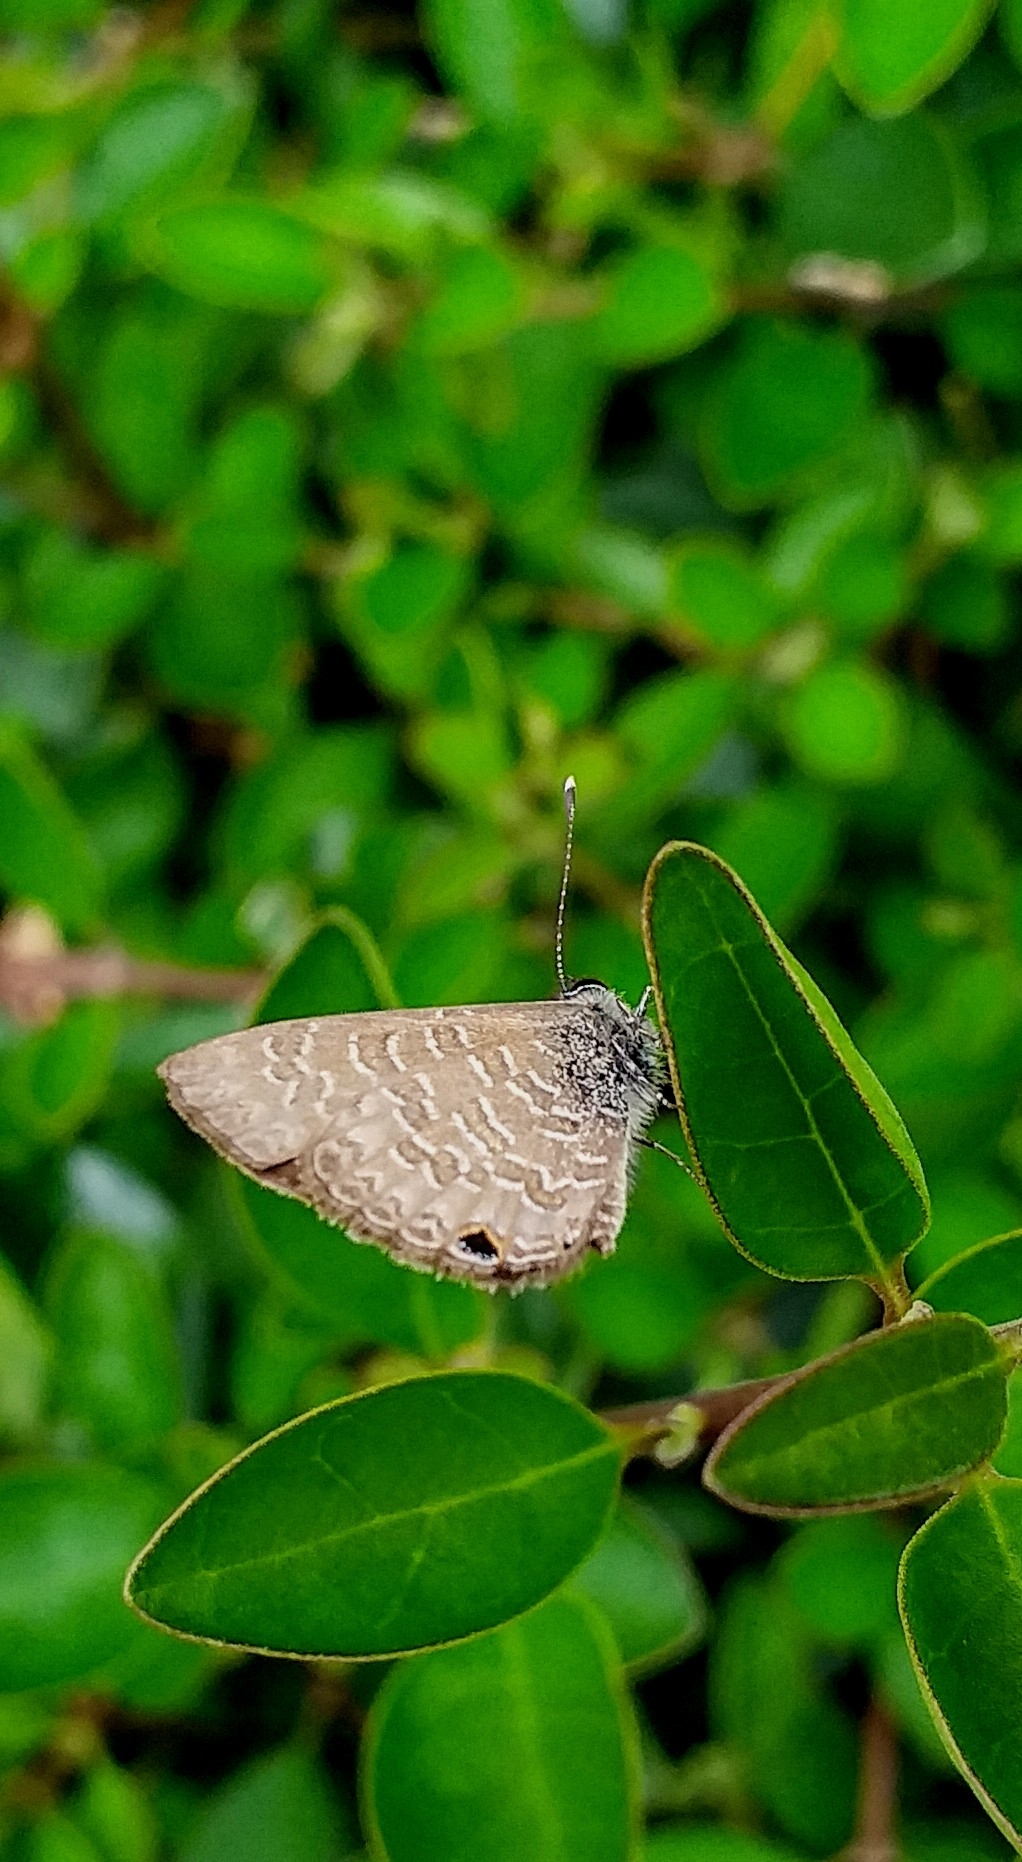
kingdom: Animalia
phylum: Arthropoda
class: Insecta
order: Lepidoptera
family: Lycaenidae
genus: Prosotas
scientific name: Prosotas dubiosa
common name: Tailless lineblue
